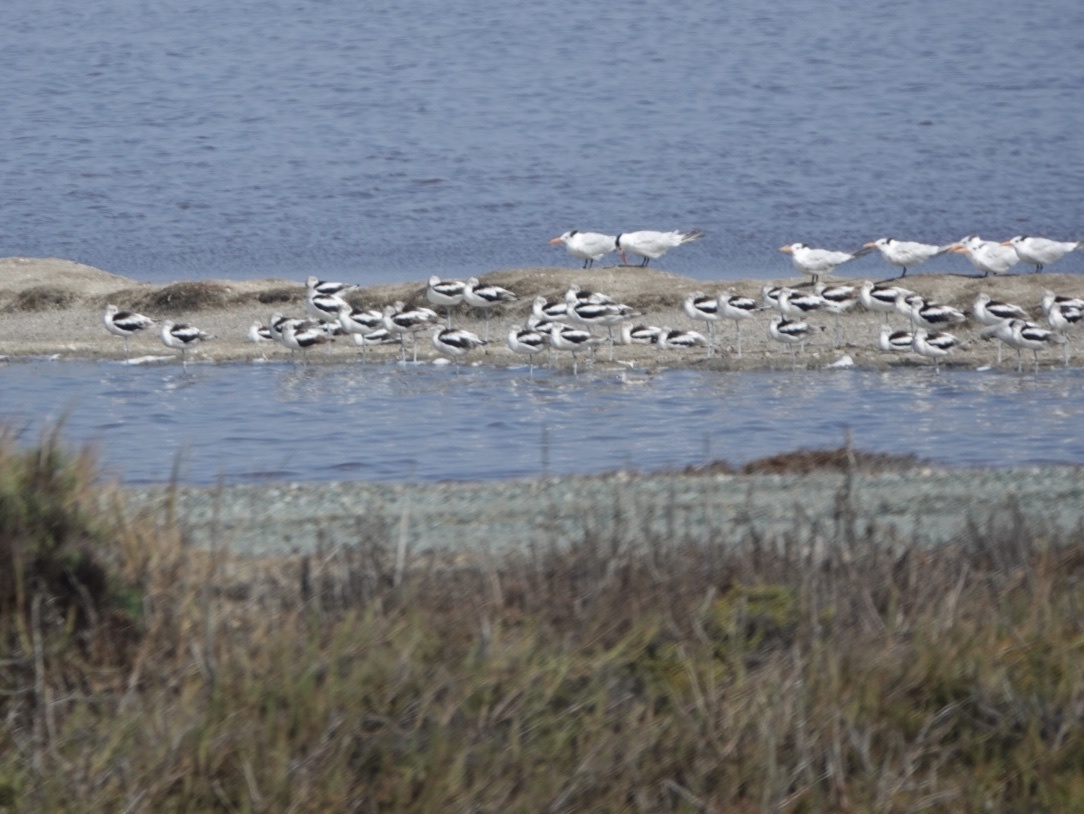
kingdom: Animalia
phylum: Chordata
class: Aves
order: Charadriiformes
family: Recurvirostridae
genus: Recurvirostra
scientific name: Recurvirostra americana
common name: American avocet
